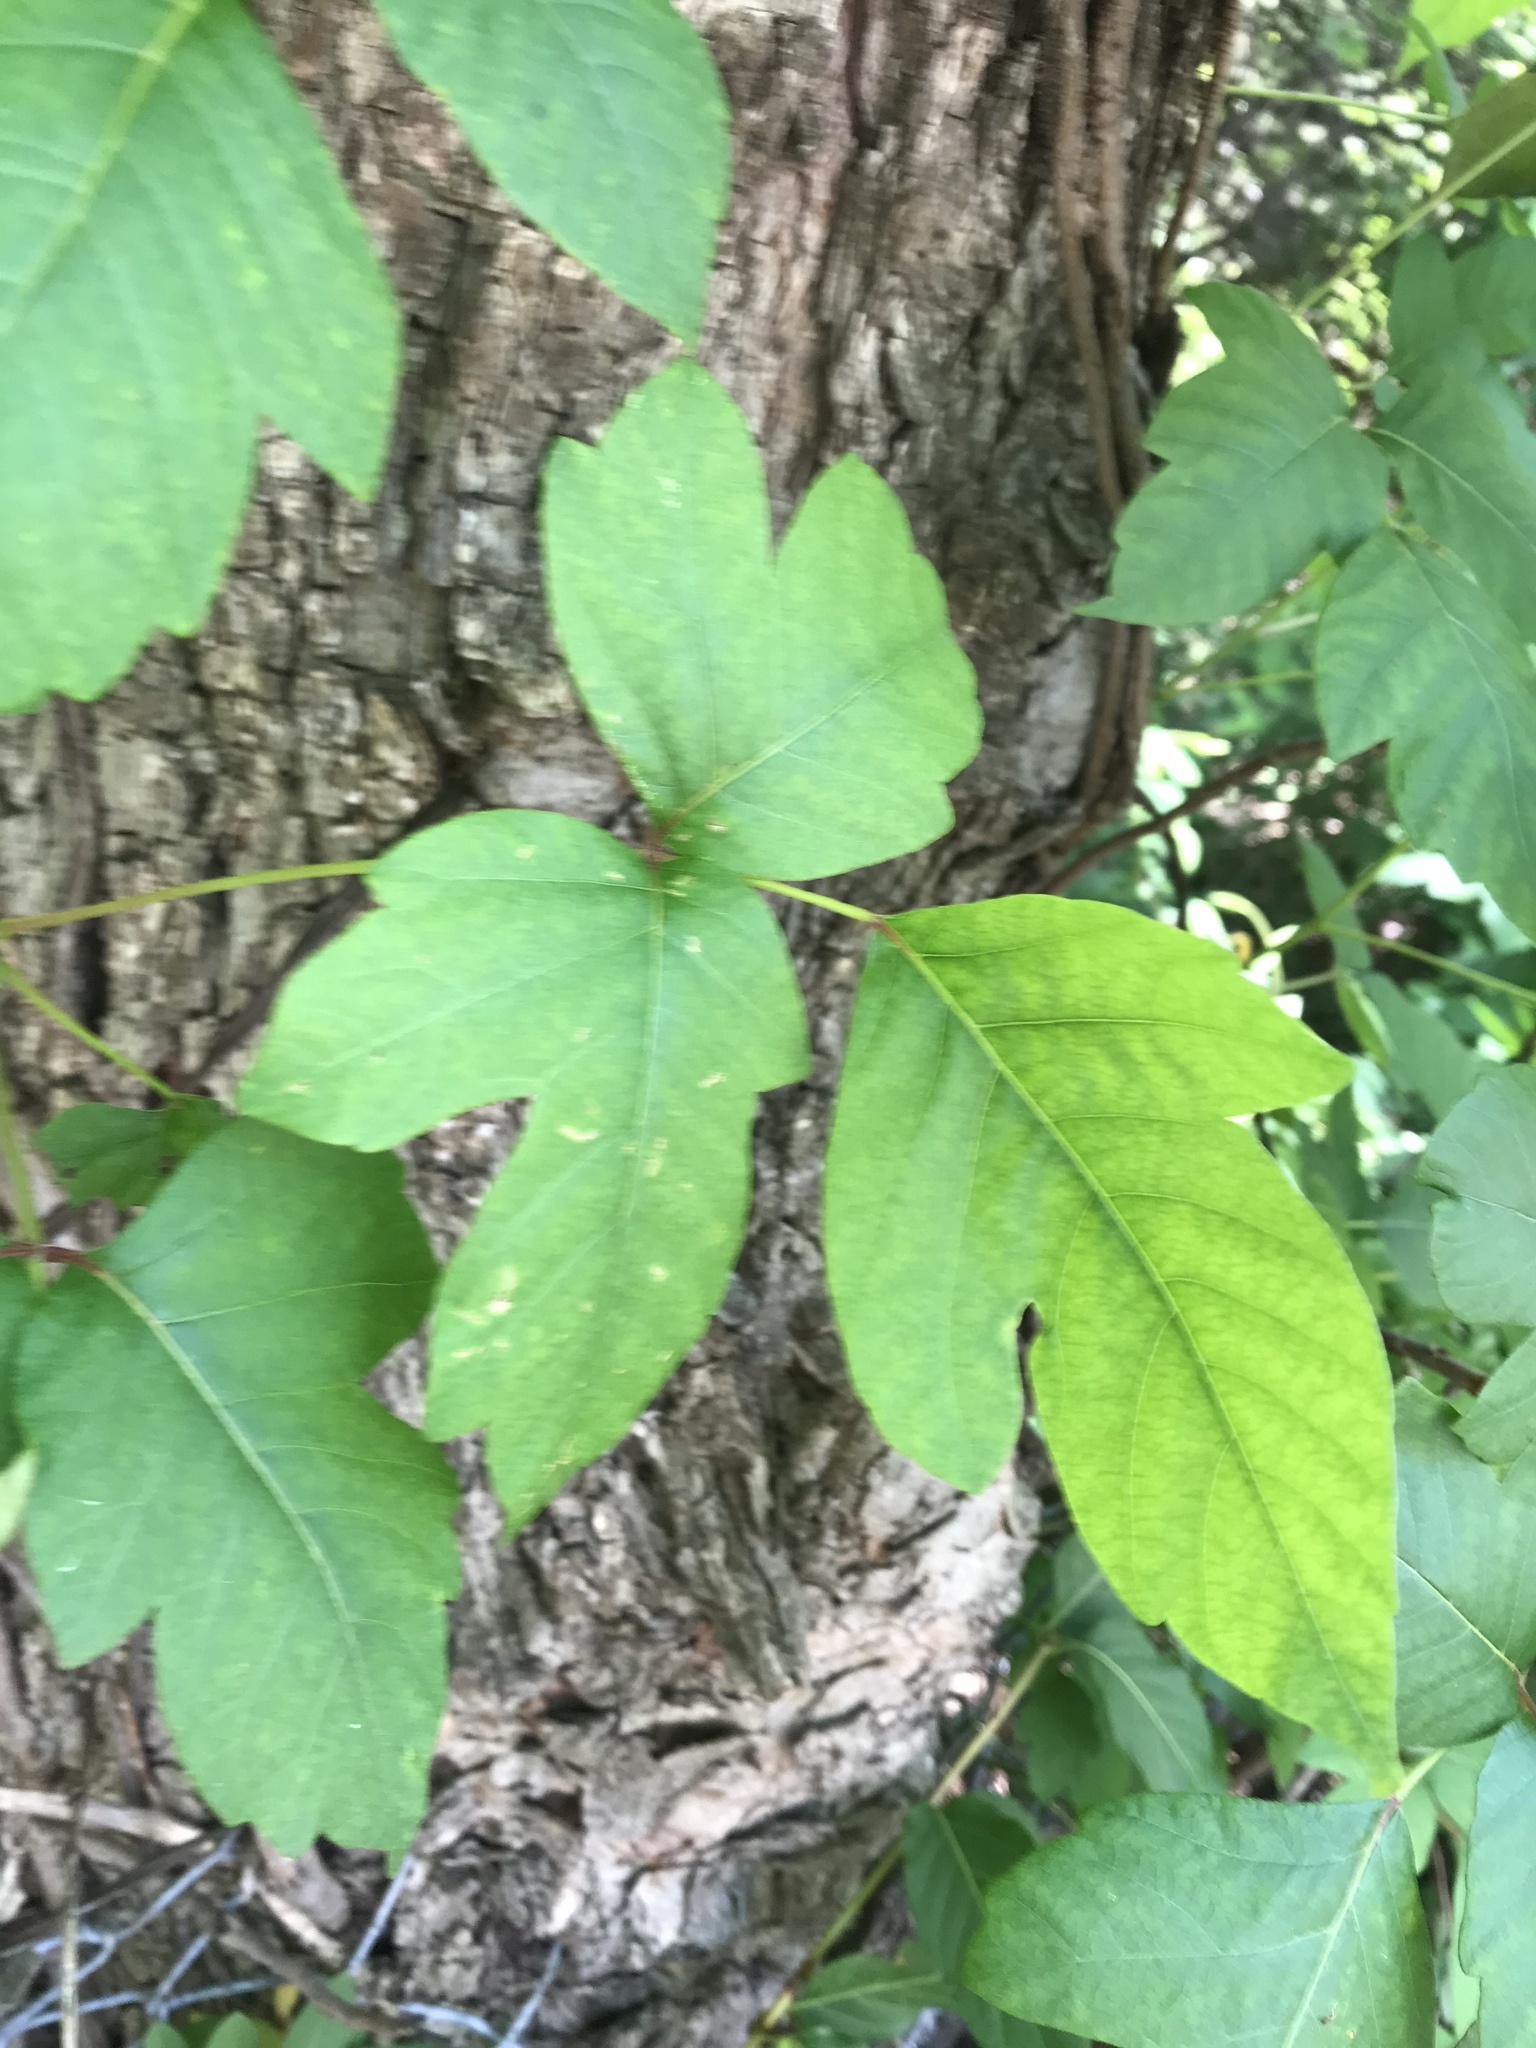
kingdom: Plantae
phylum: Tracheophyta
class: Magnoliopsida
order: Sapindales
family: Anacardiaceae
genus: Toxicodendron
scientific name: Toxicodendron radicans
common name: Poison ivy
